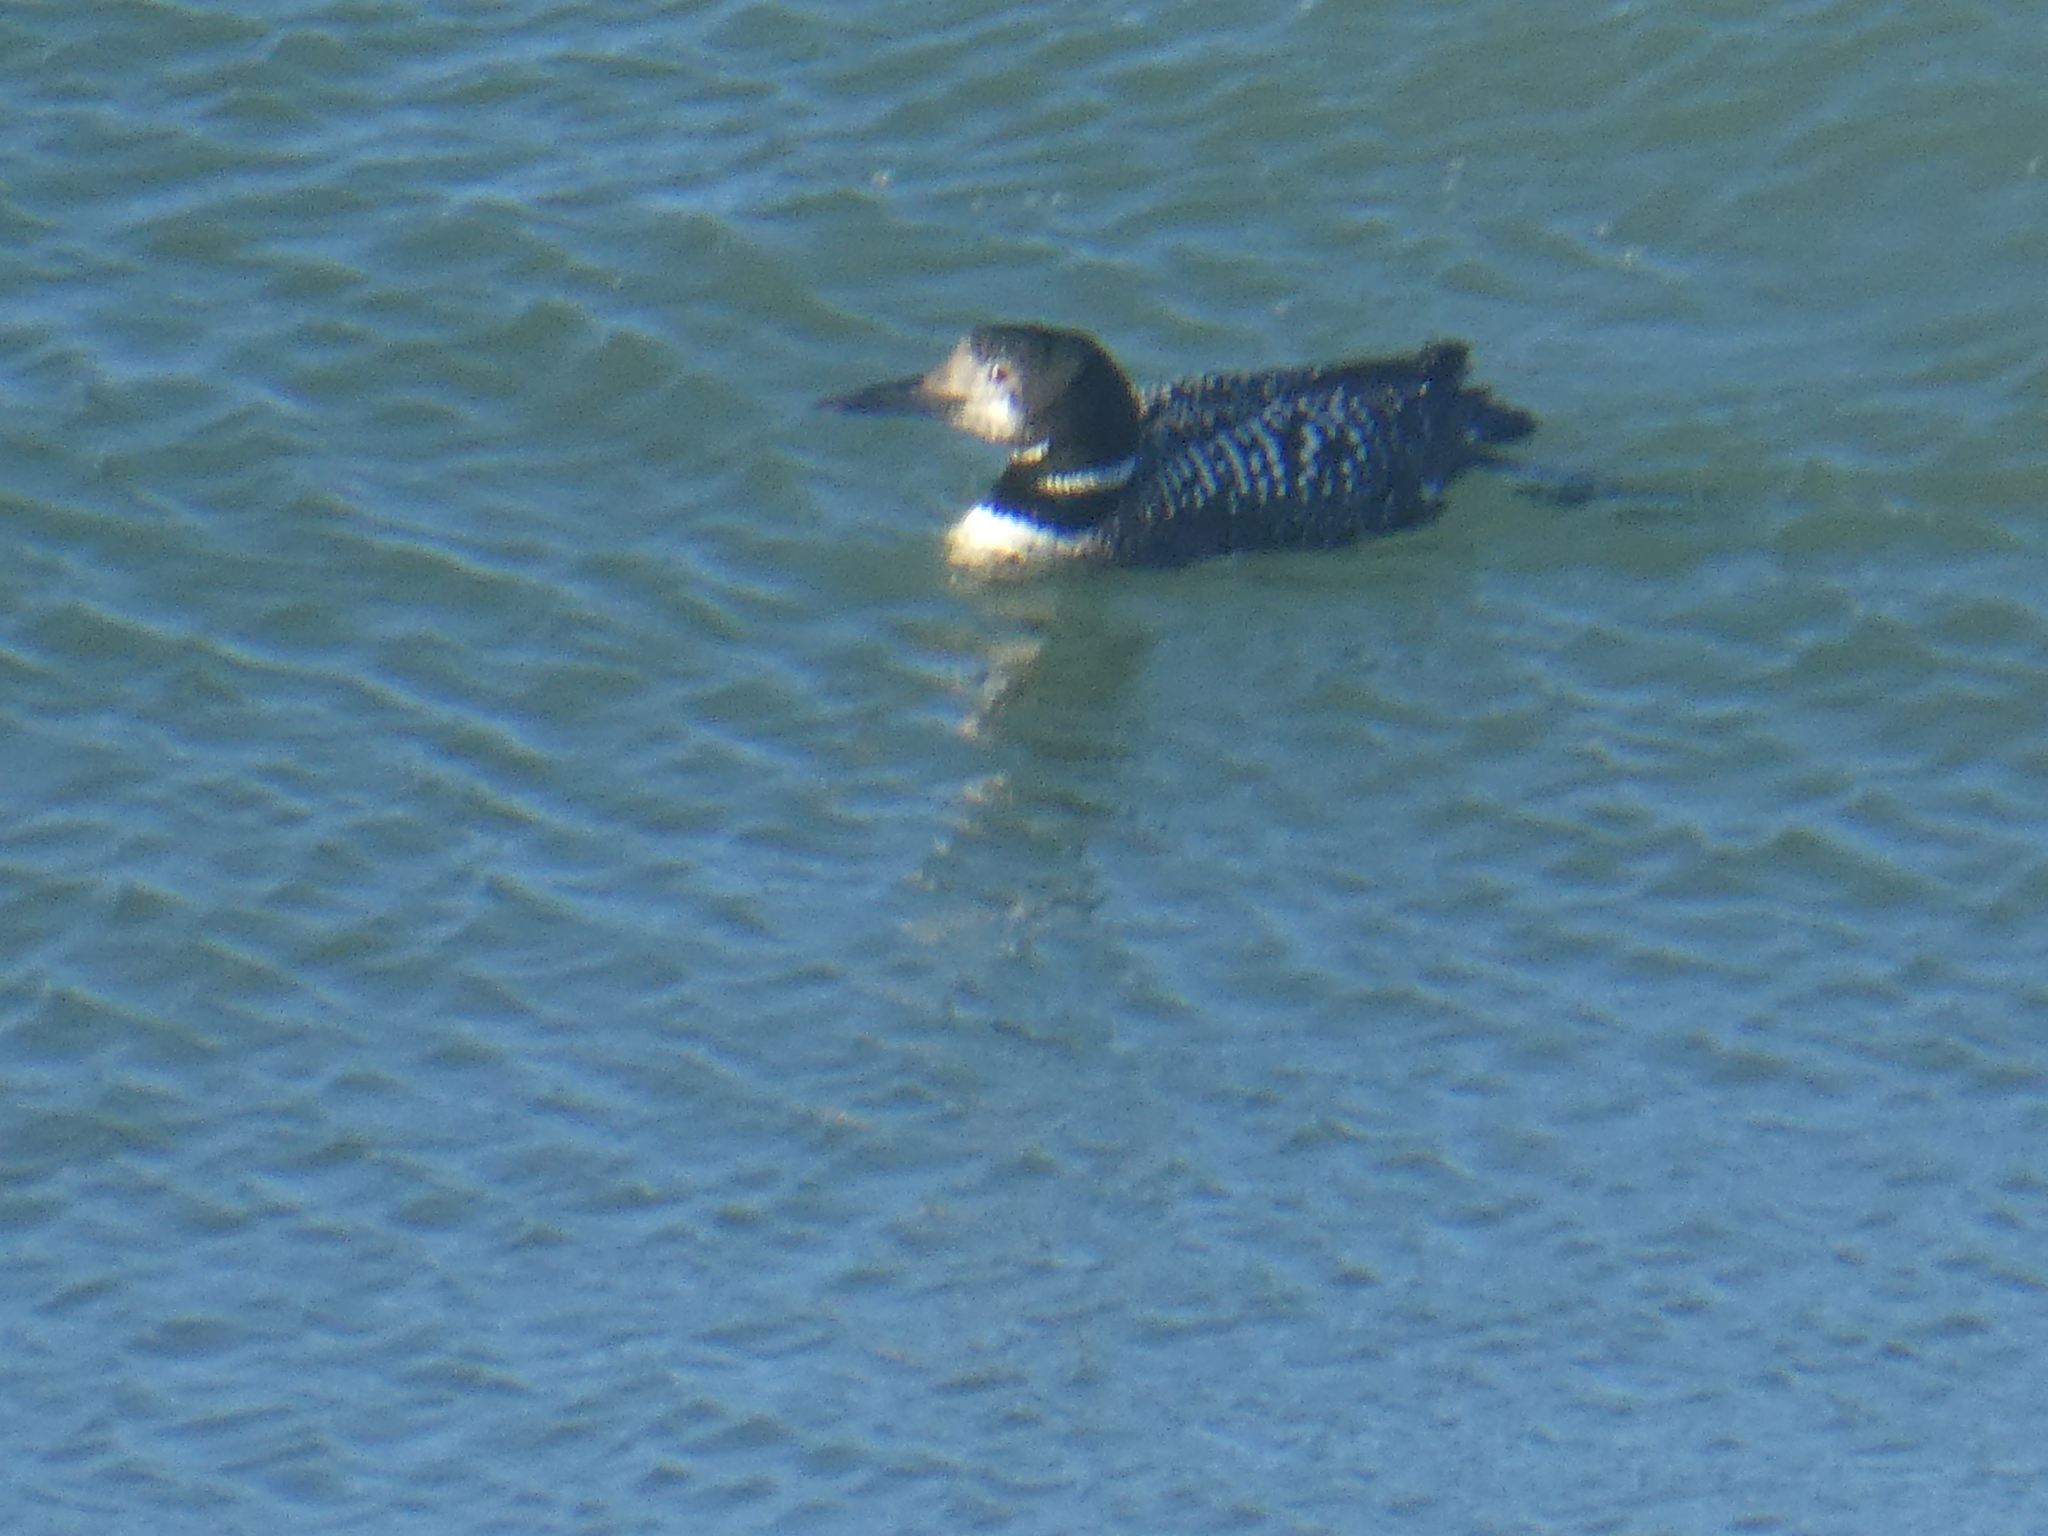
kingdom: Animalia
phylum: Chordata
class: Aves
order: Gaviiformes
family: Gaviidae
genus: Gavia
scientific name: Gavia immer
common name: Common loon
